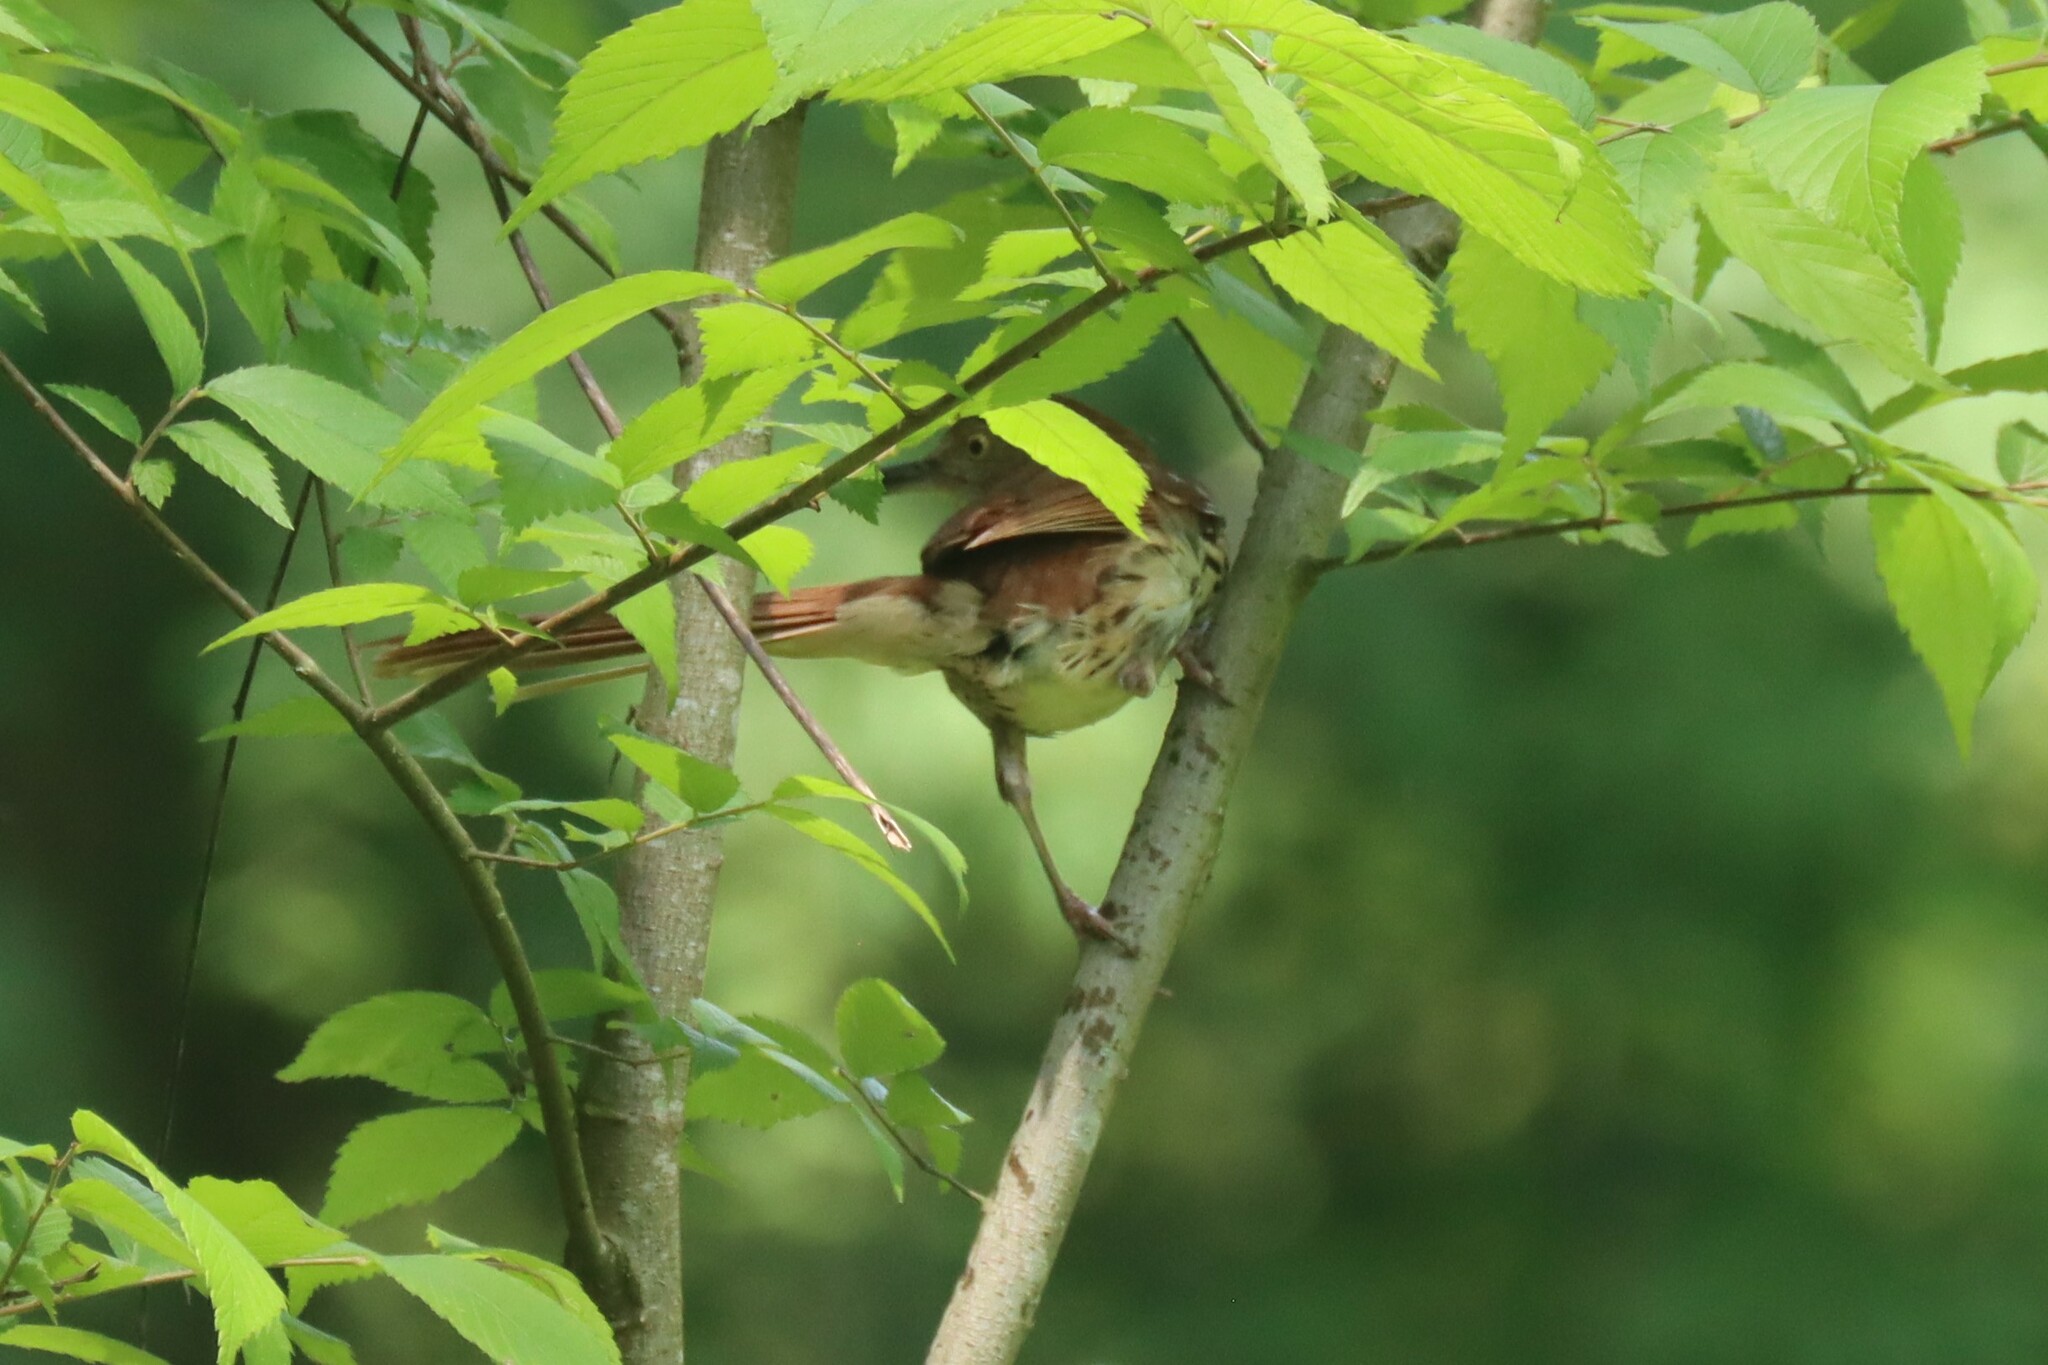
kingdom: Animalia
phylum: Chordata
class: Aves
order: Passeriformes
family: Mimidae
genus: Toxostoma
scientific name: Toxostoma rufum
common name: Brown thrasher
